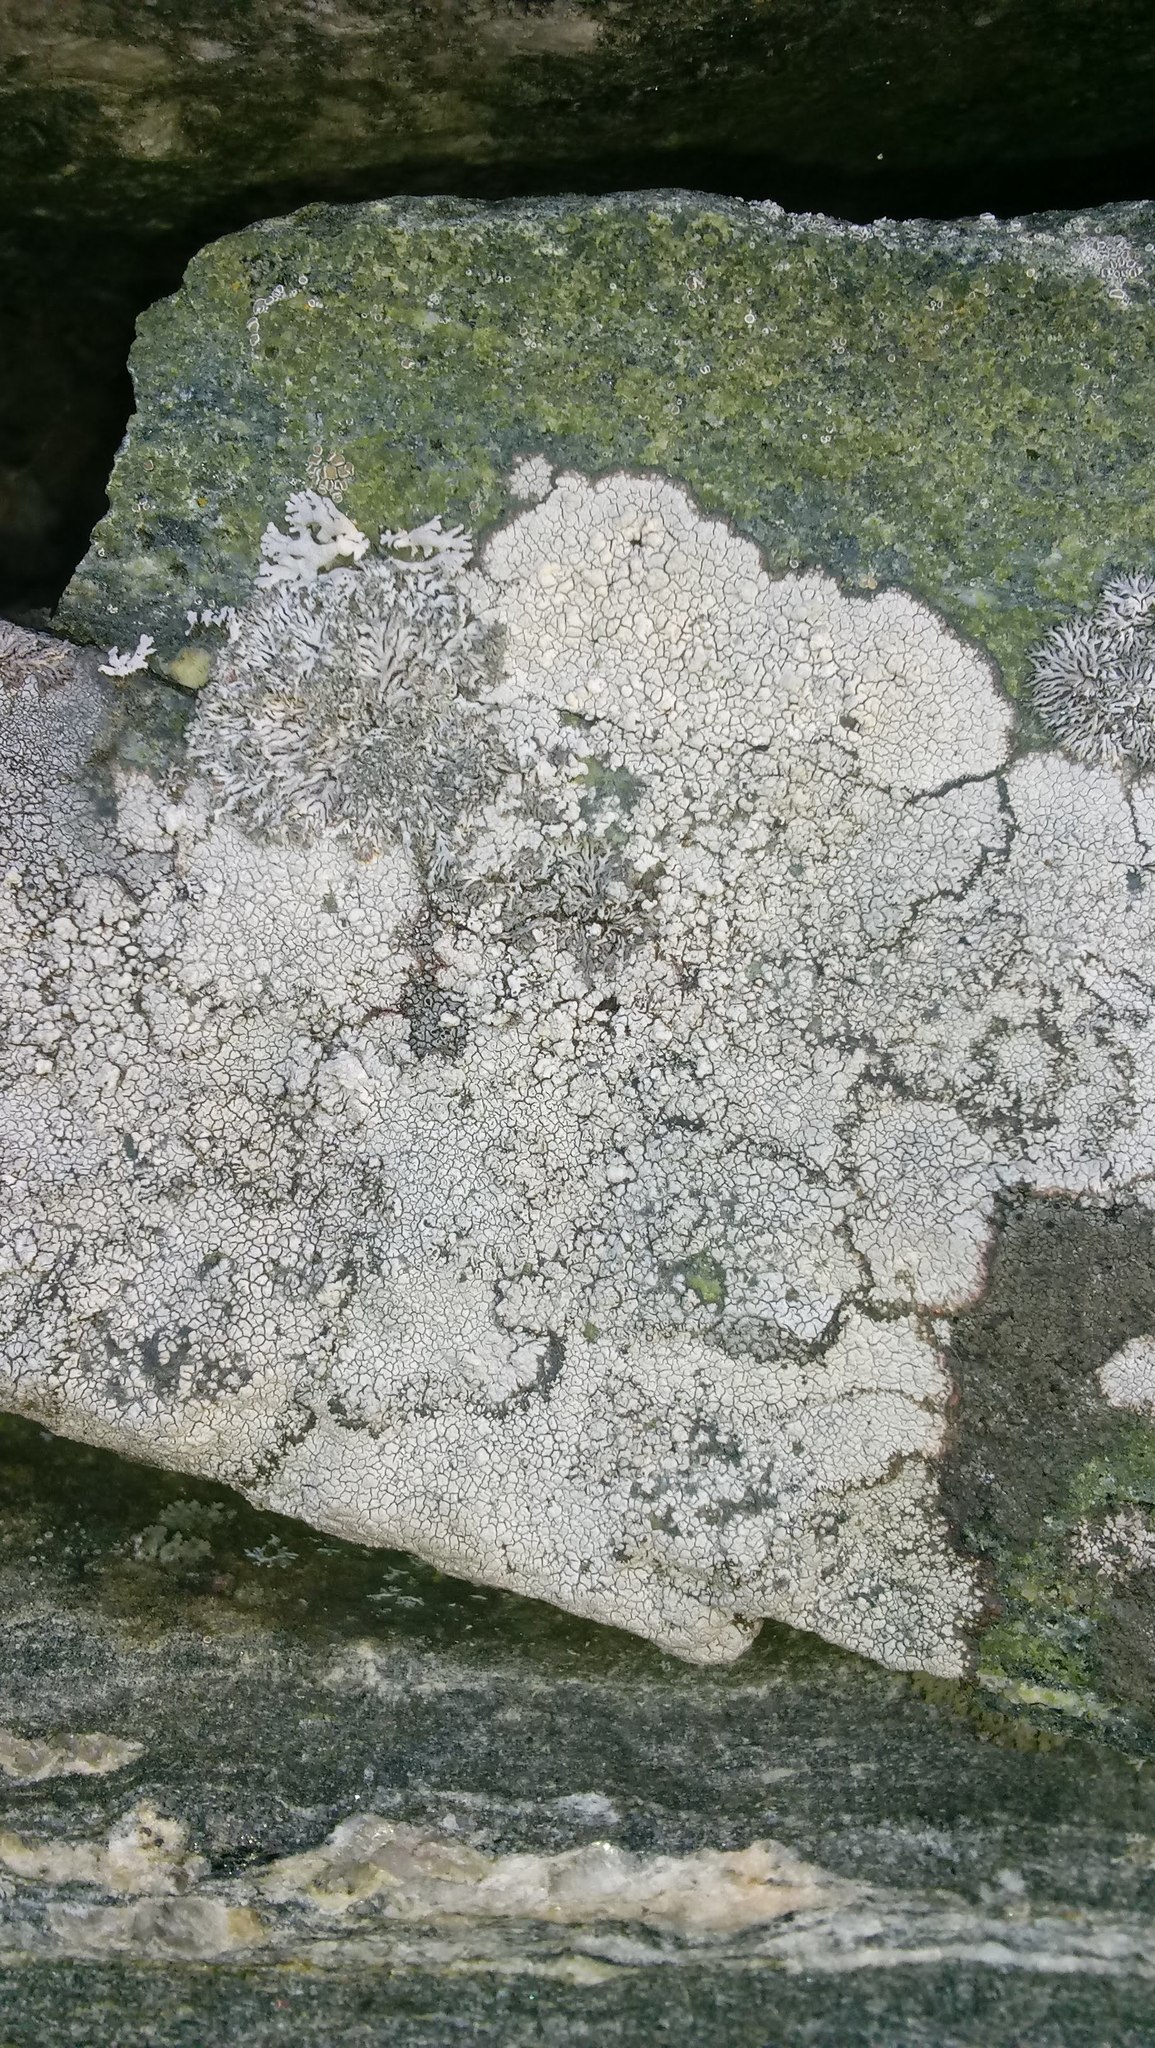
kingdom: Fungi
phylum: Ascomycota
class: Lecanoromycetes
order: Pertusariales
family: Megasporaceae
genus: Aspicilia
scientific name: Aspicilia laevata
